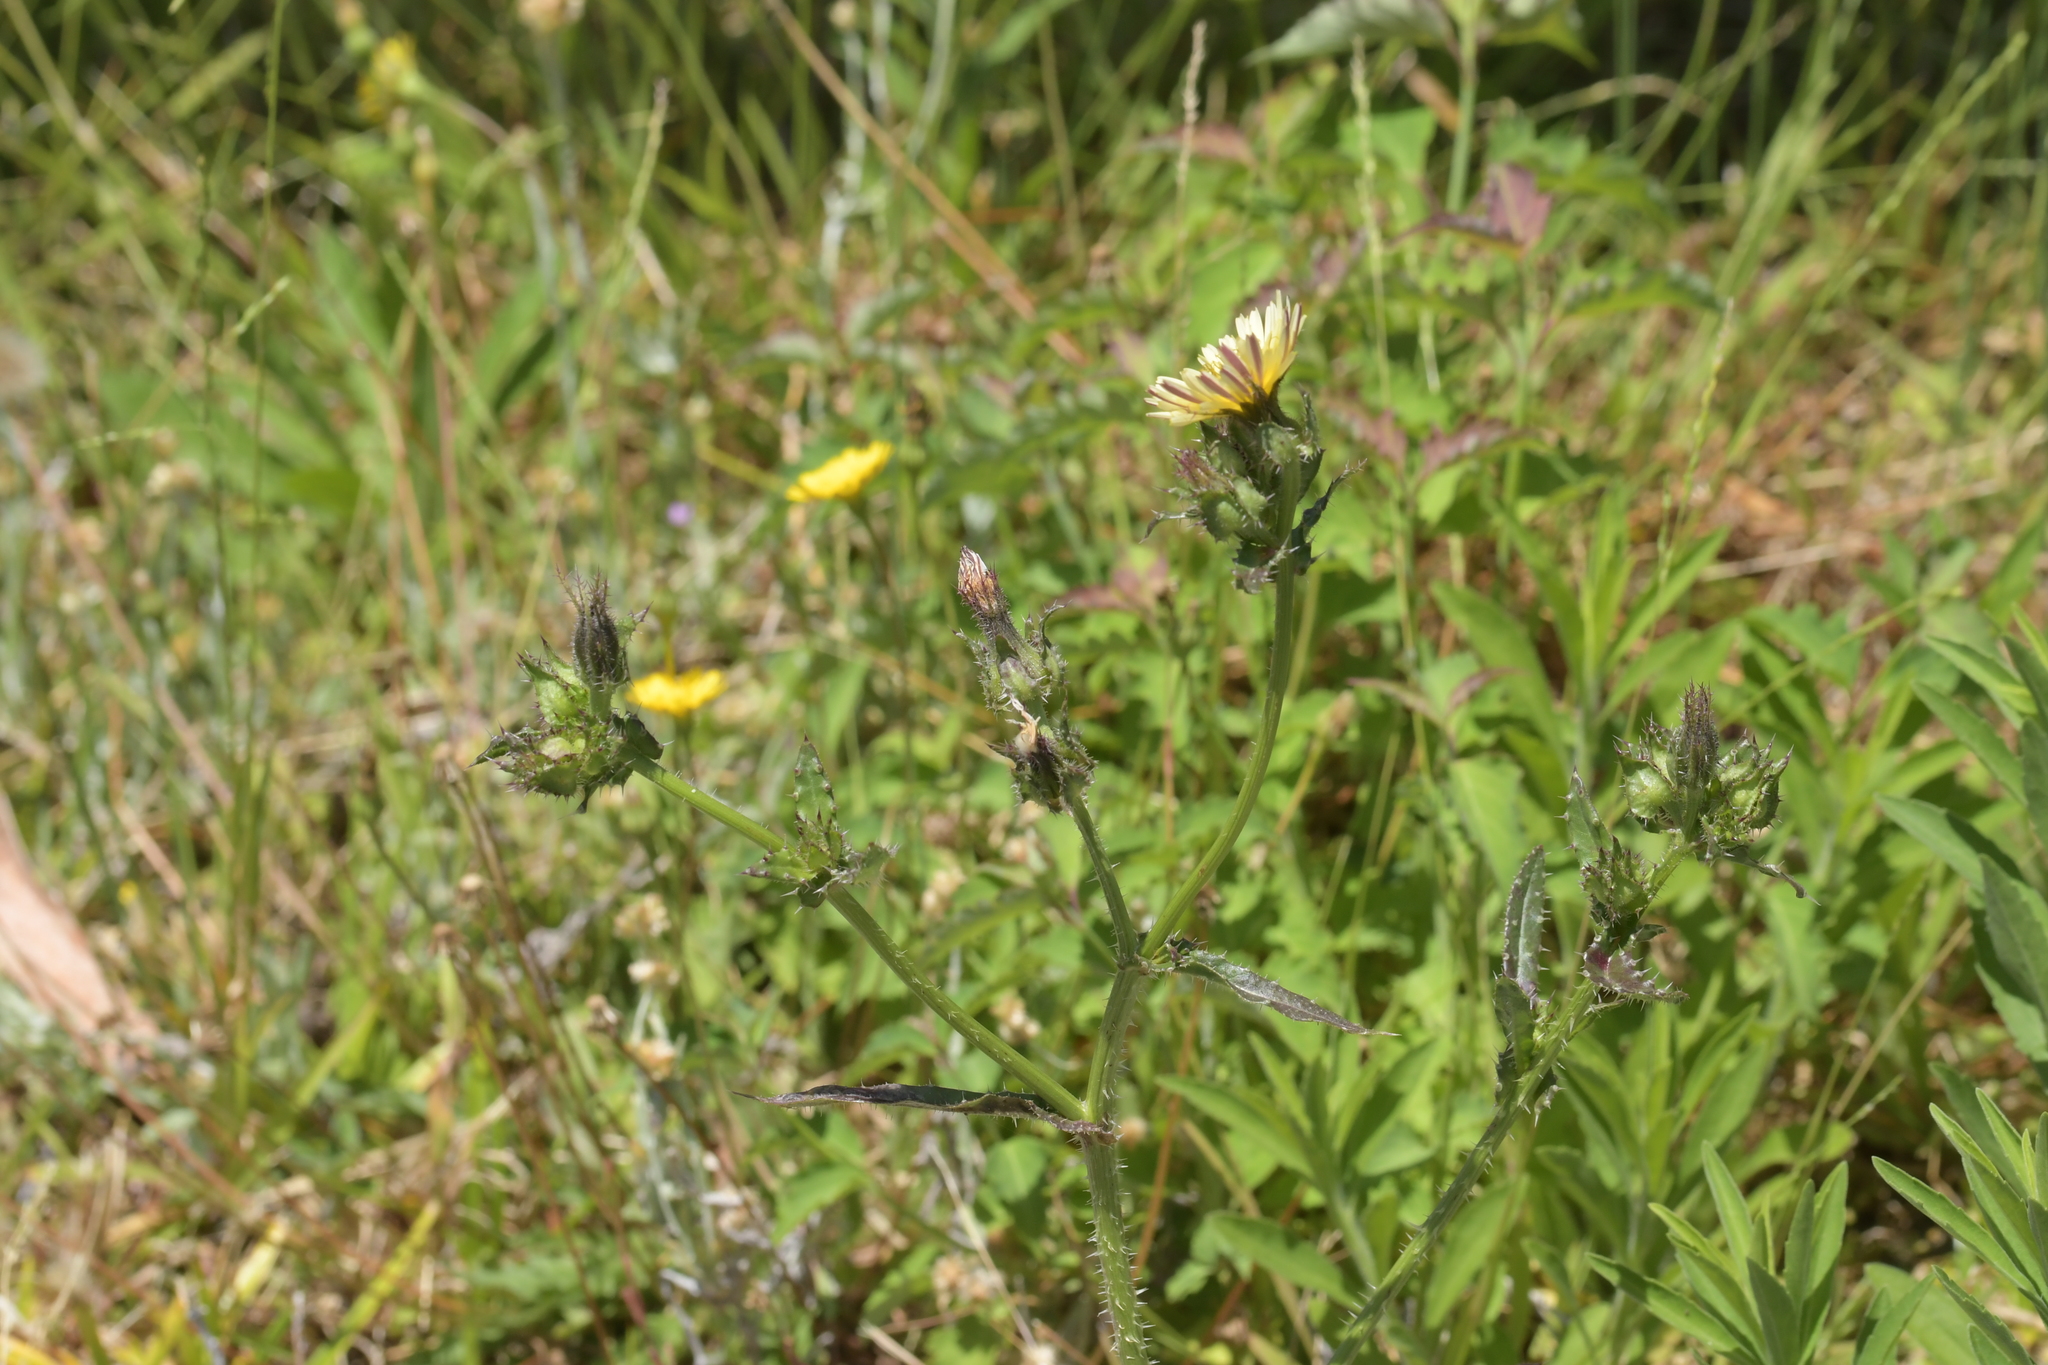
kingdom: Plantae
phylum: Tracheophyta
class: Magnoliopsida
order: Asterales
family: Asteraceae
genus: Helminthotheca
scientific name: Helminthotheca echioides
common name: Ox-tongue
